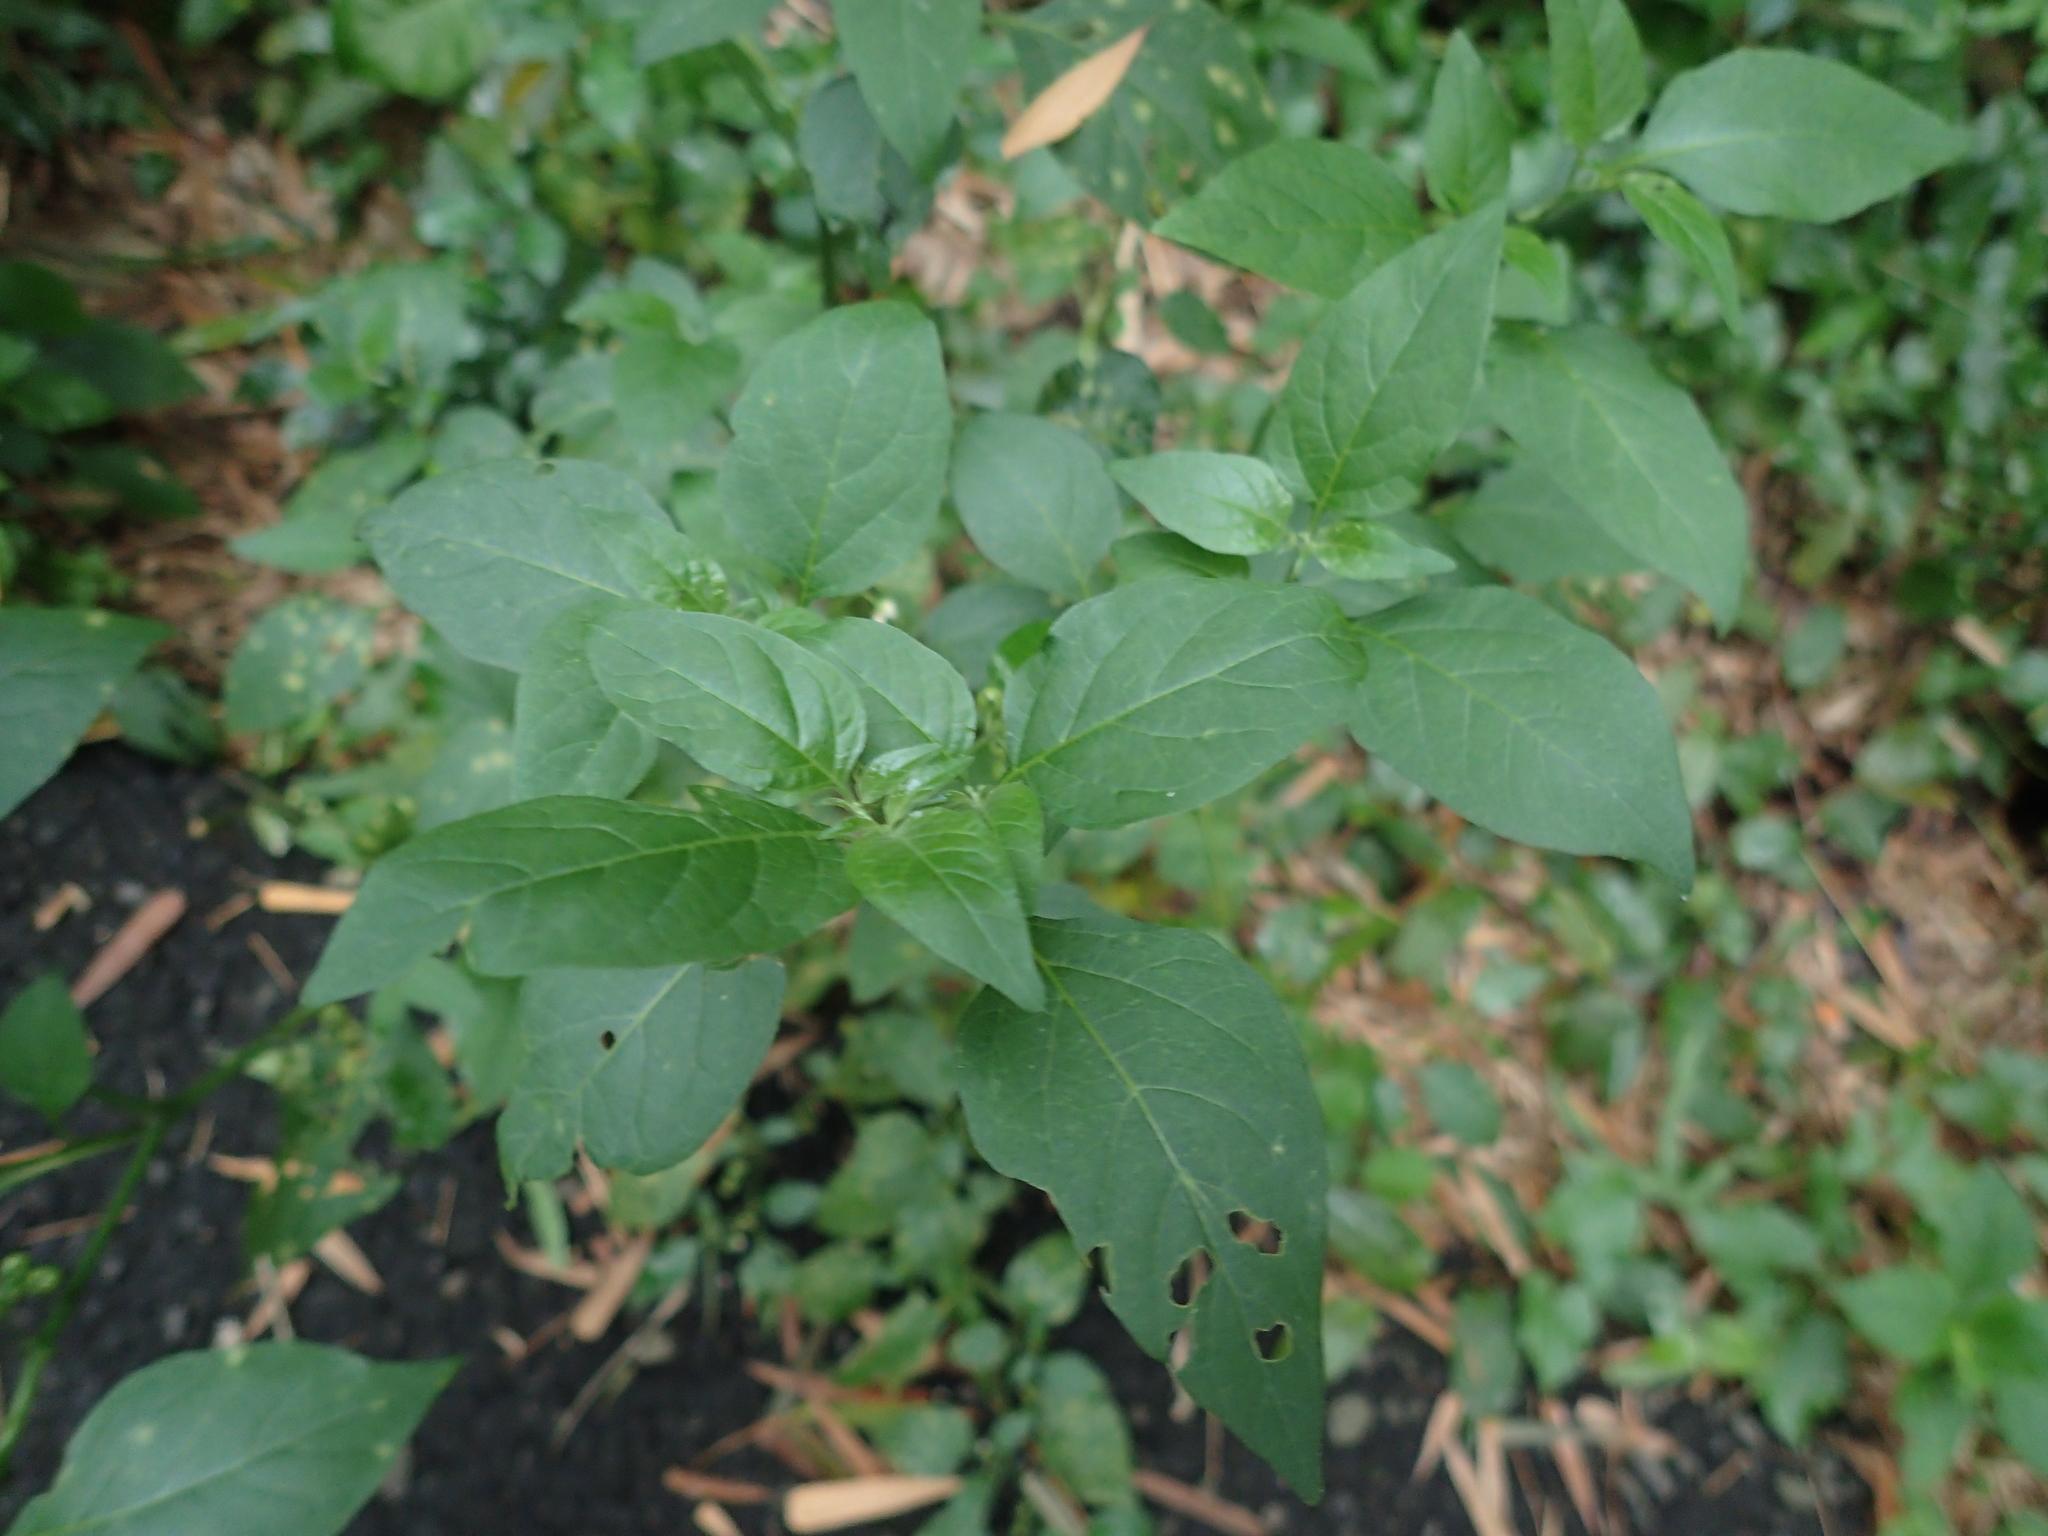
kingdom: Plantae
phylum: Tracheophyta
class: Magnoliopsida
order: Solanales
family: Solanaceae
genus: Solanum
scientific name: Solanum
